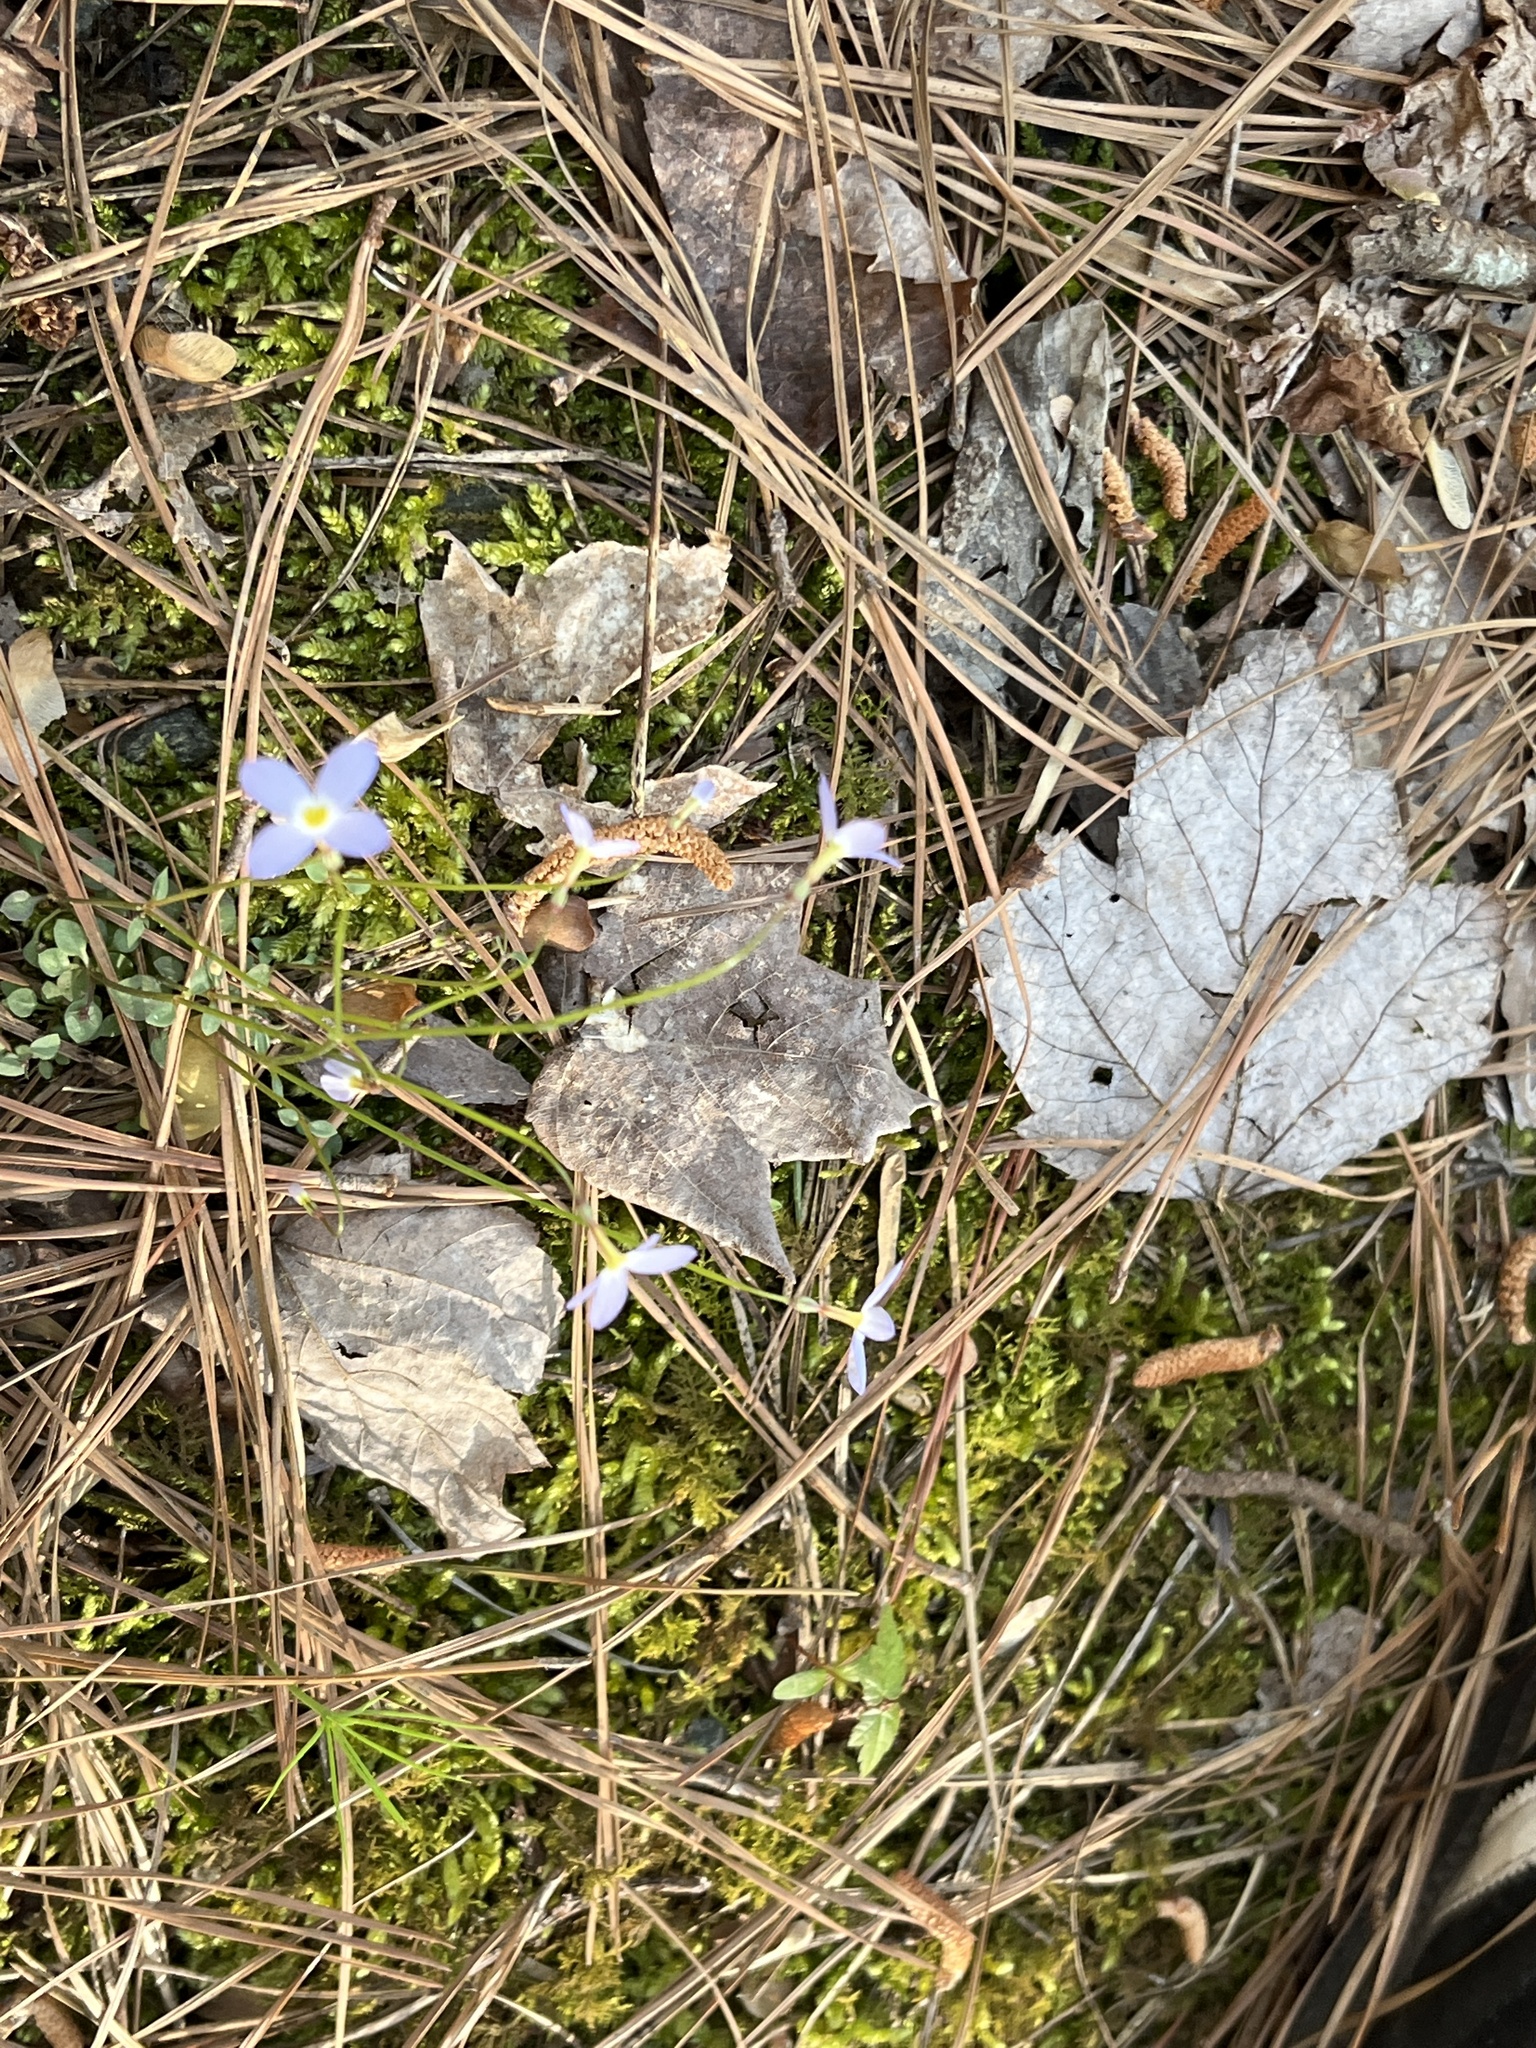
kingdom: Plantae
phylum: Tracheophyta
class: Magnoliopsida
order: Gentianales
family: Rubiaceae
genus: Houstonia
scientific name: Houstonia caerulea
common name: Bluets
